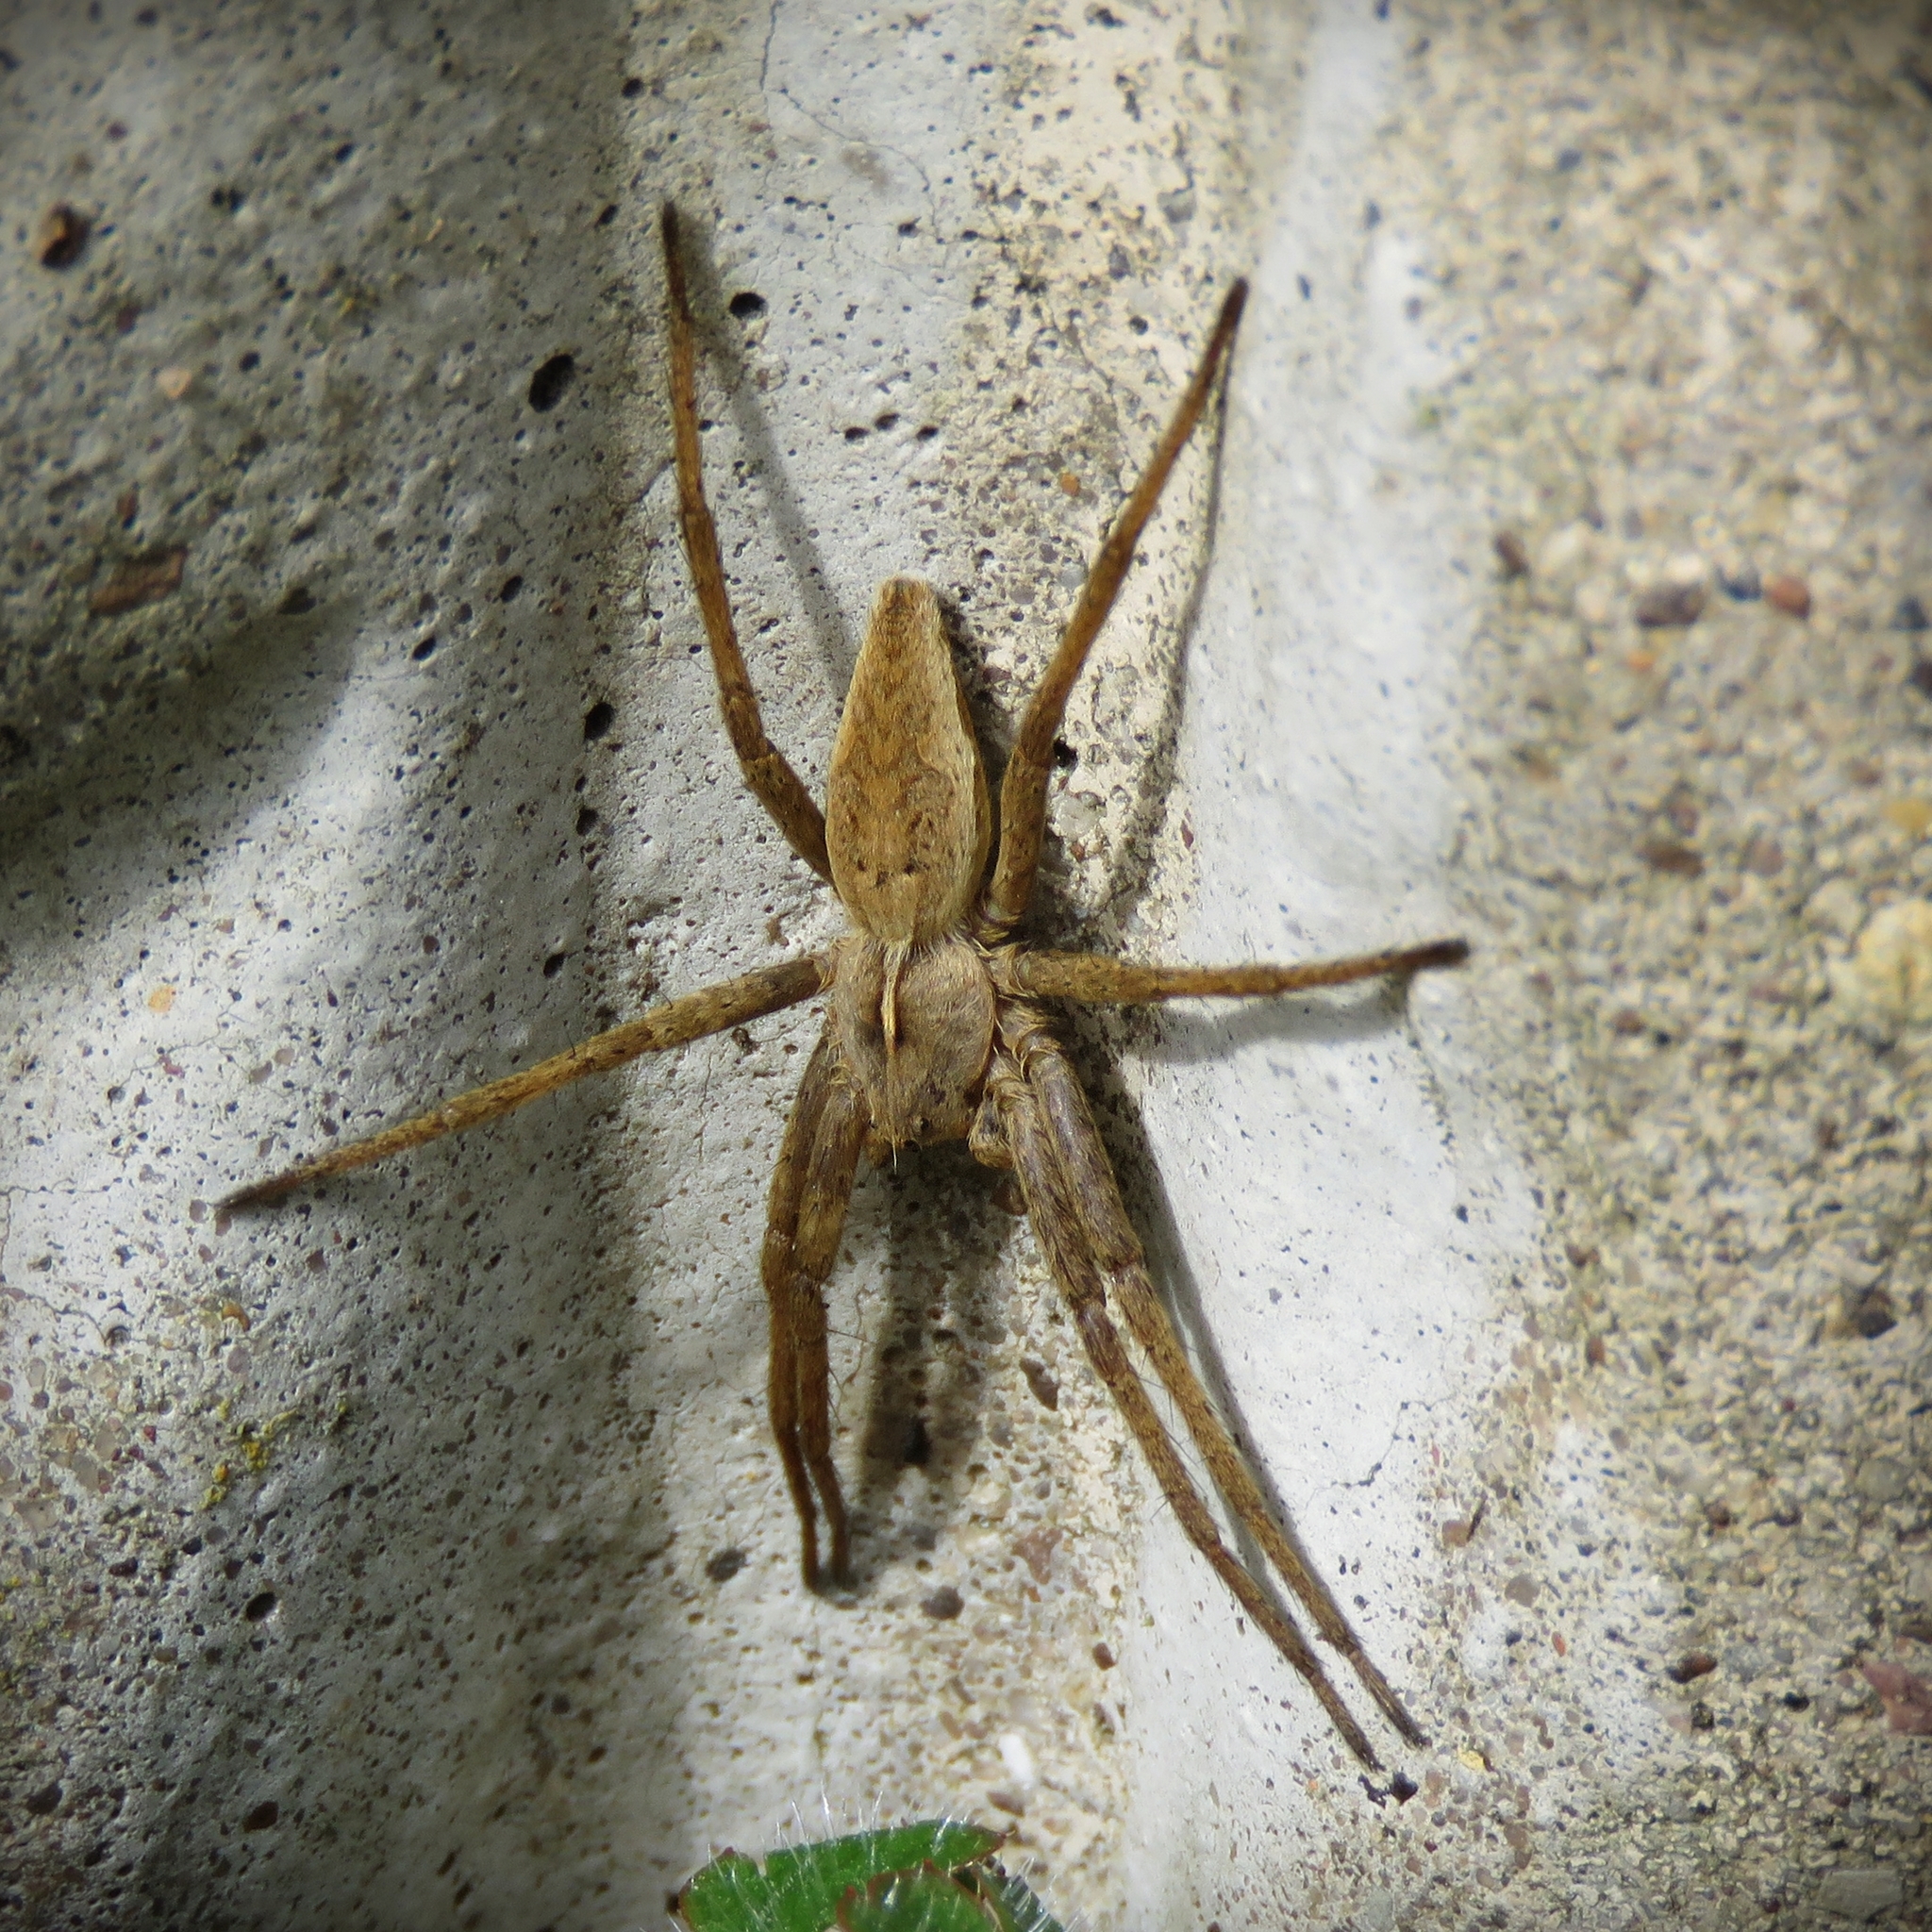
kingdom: Animalia
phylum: Arthropoda
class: Arachnida
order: Araneae
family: Pisauridae
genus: Pisaura
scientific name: Pisaura mirabilis
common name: Tent spider
